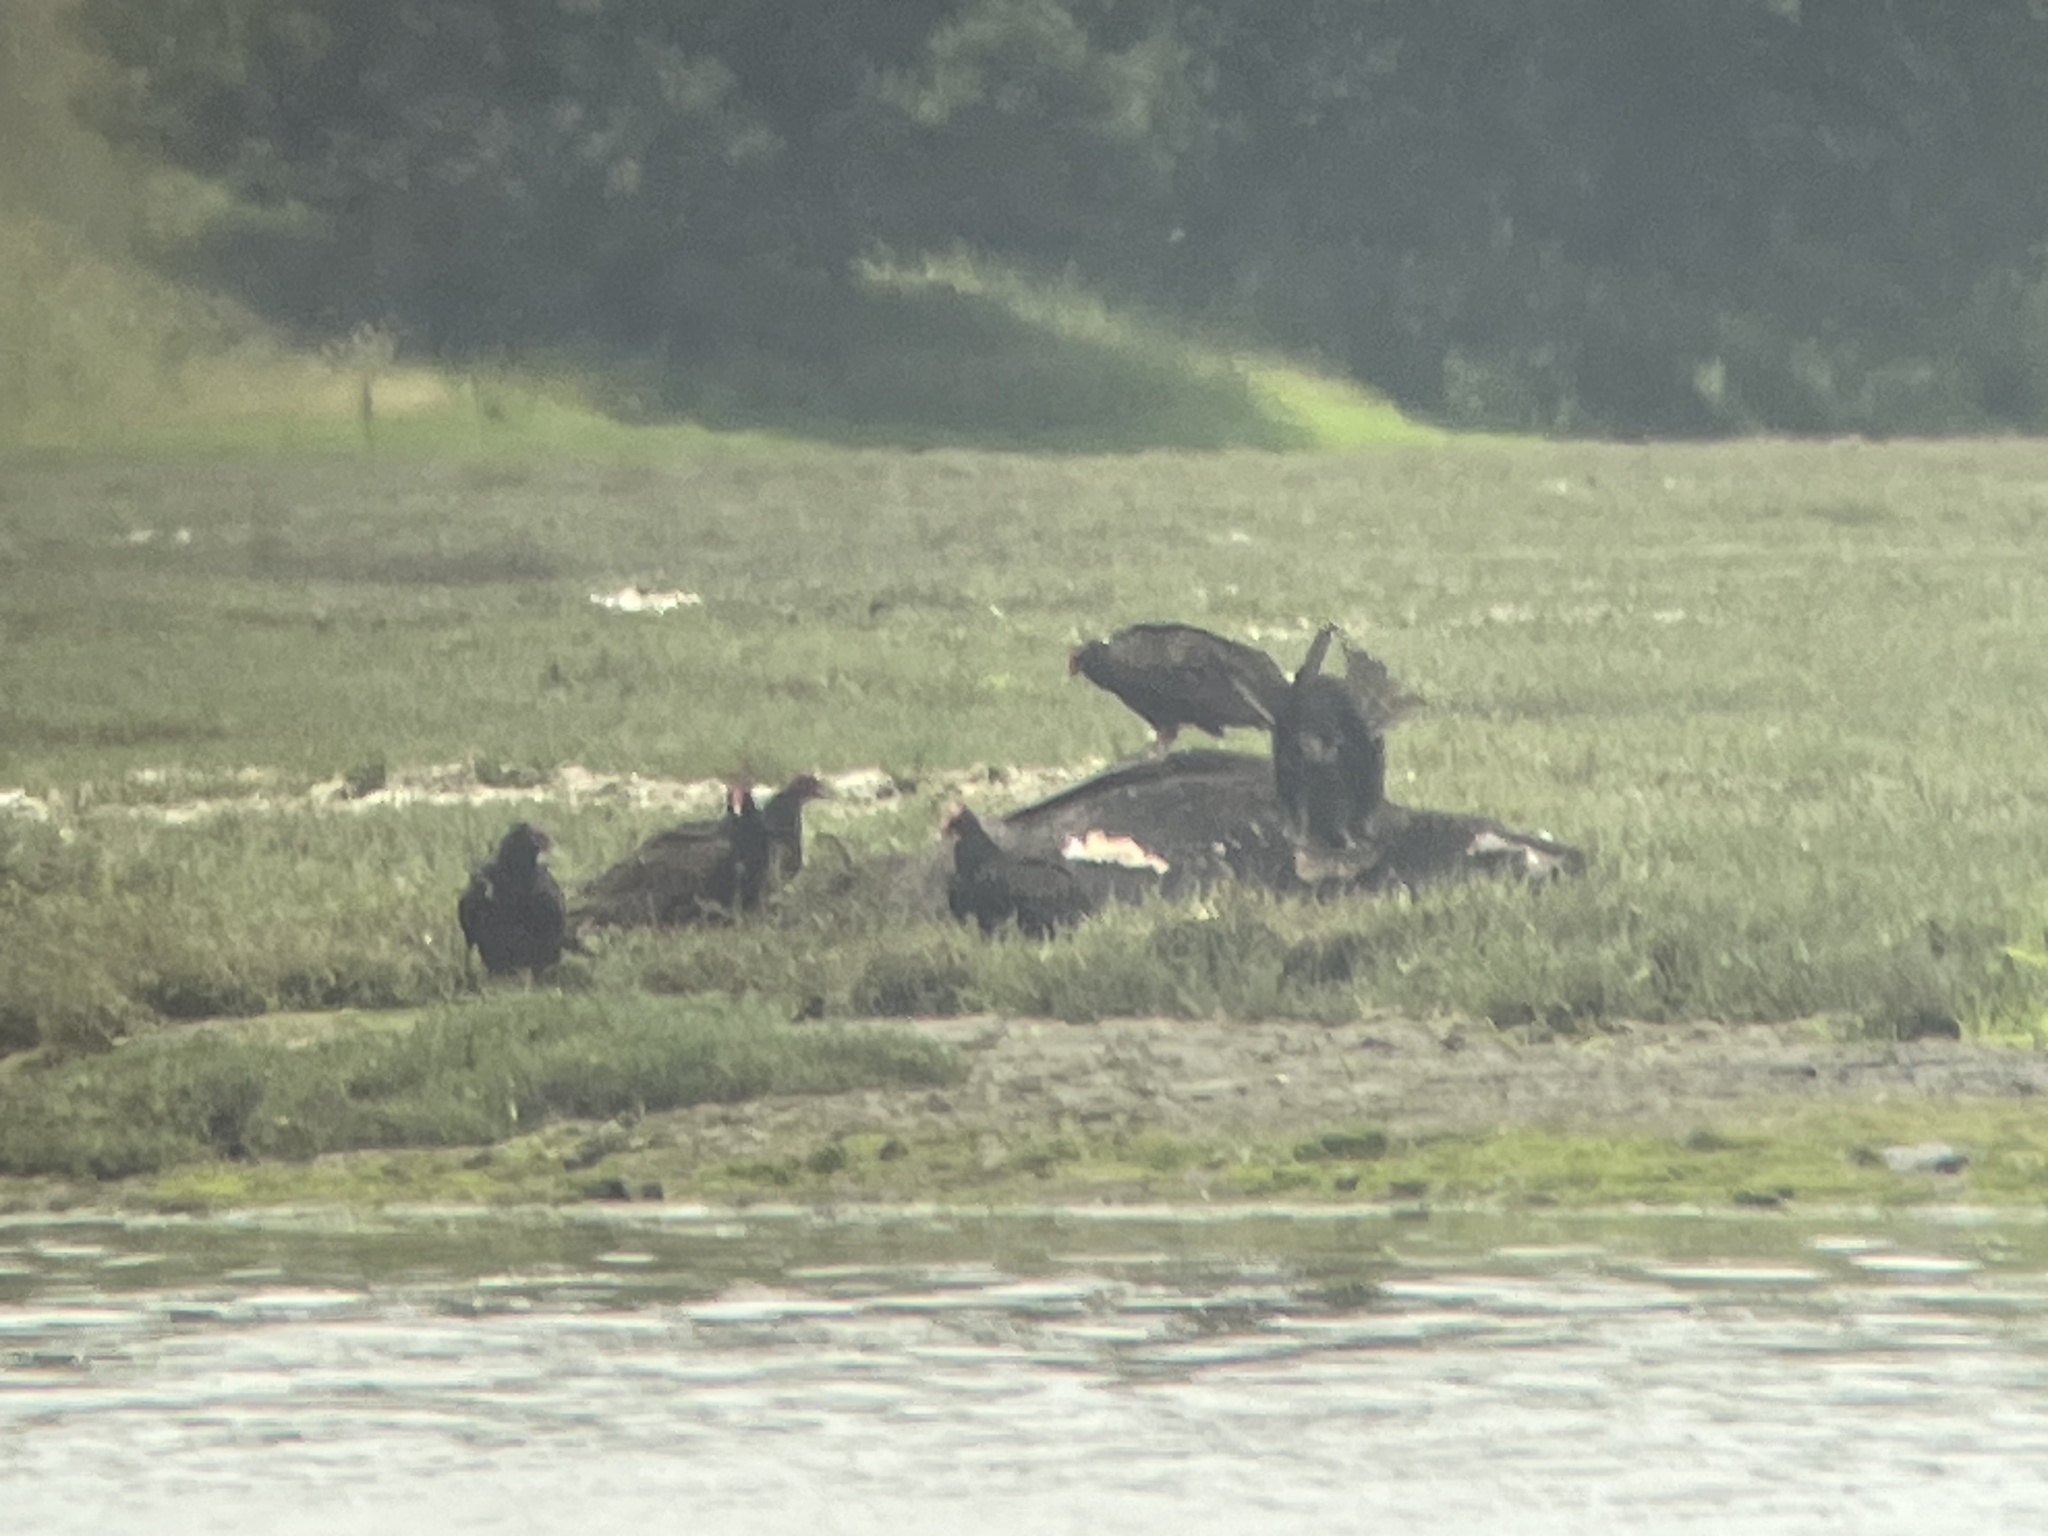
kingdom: Animalia
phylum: Chordata
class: Aves
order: Accipitriformes
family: Cathartidae
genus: Cathartes
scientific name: Cathartes aura
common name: Turkey vulture
